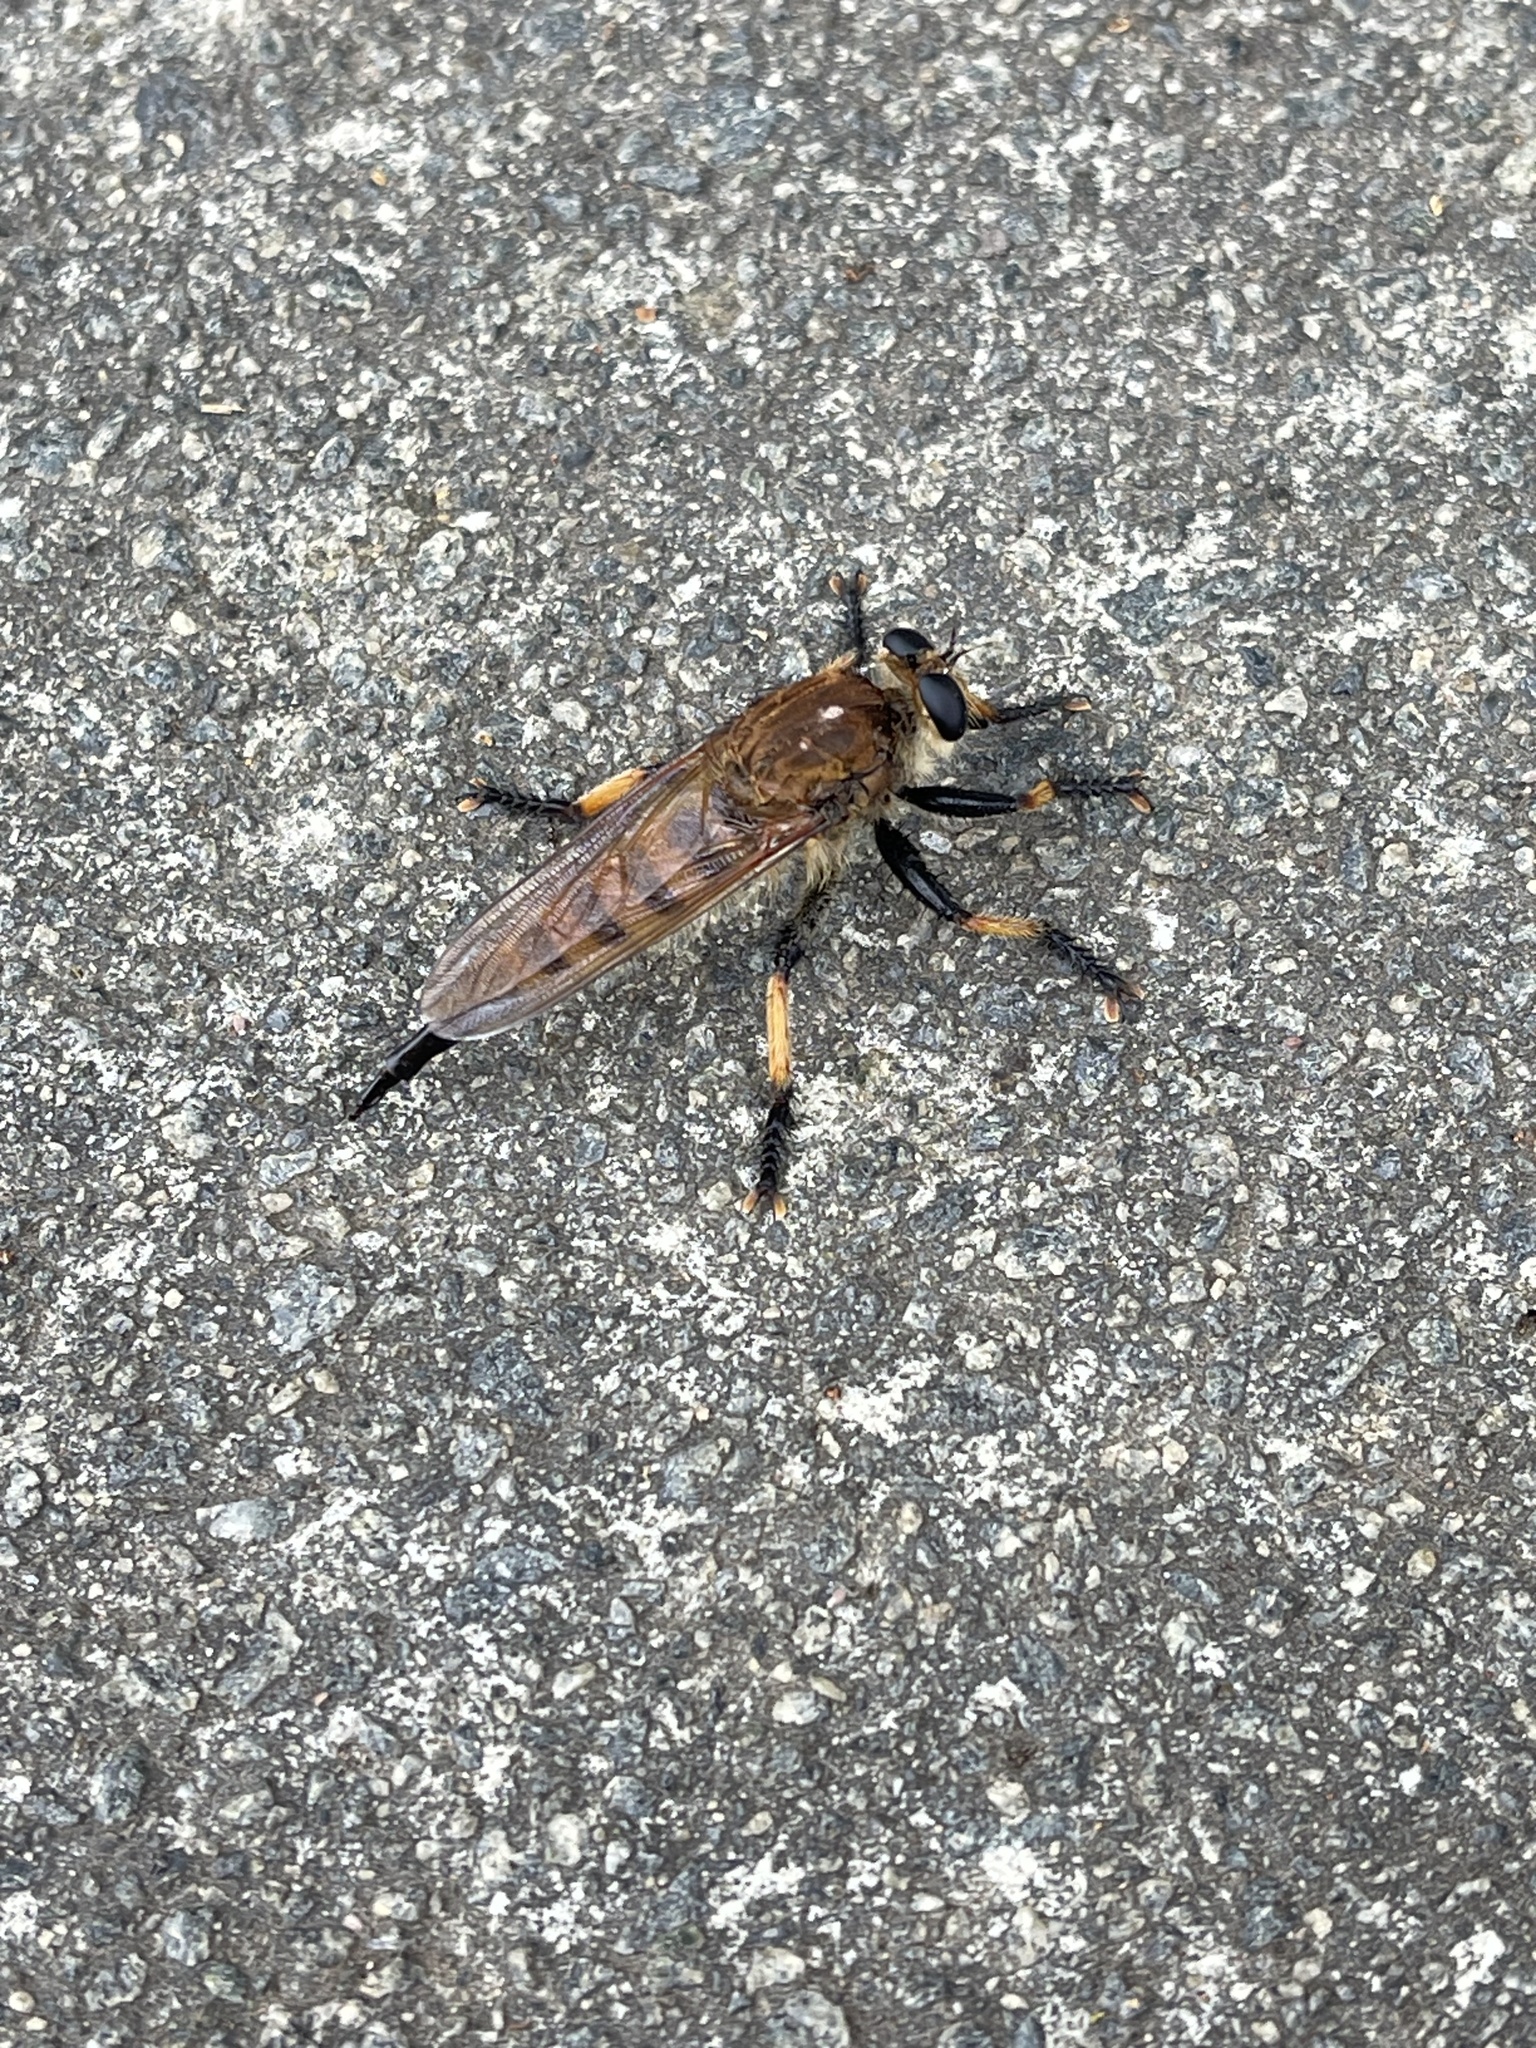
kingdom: Animalia
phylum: Arthropoda
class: Insecta
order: Diptera
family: Asilidae
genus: Promachus
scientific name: Promachus rufipes
